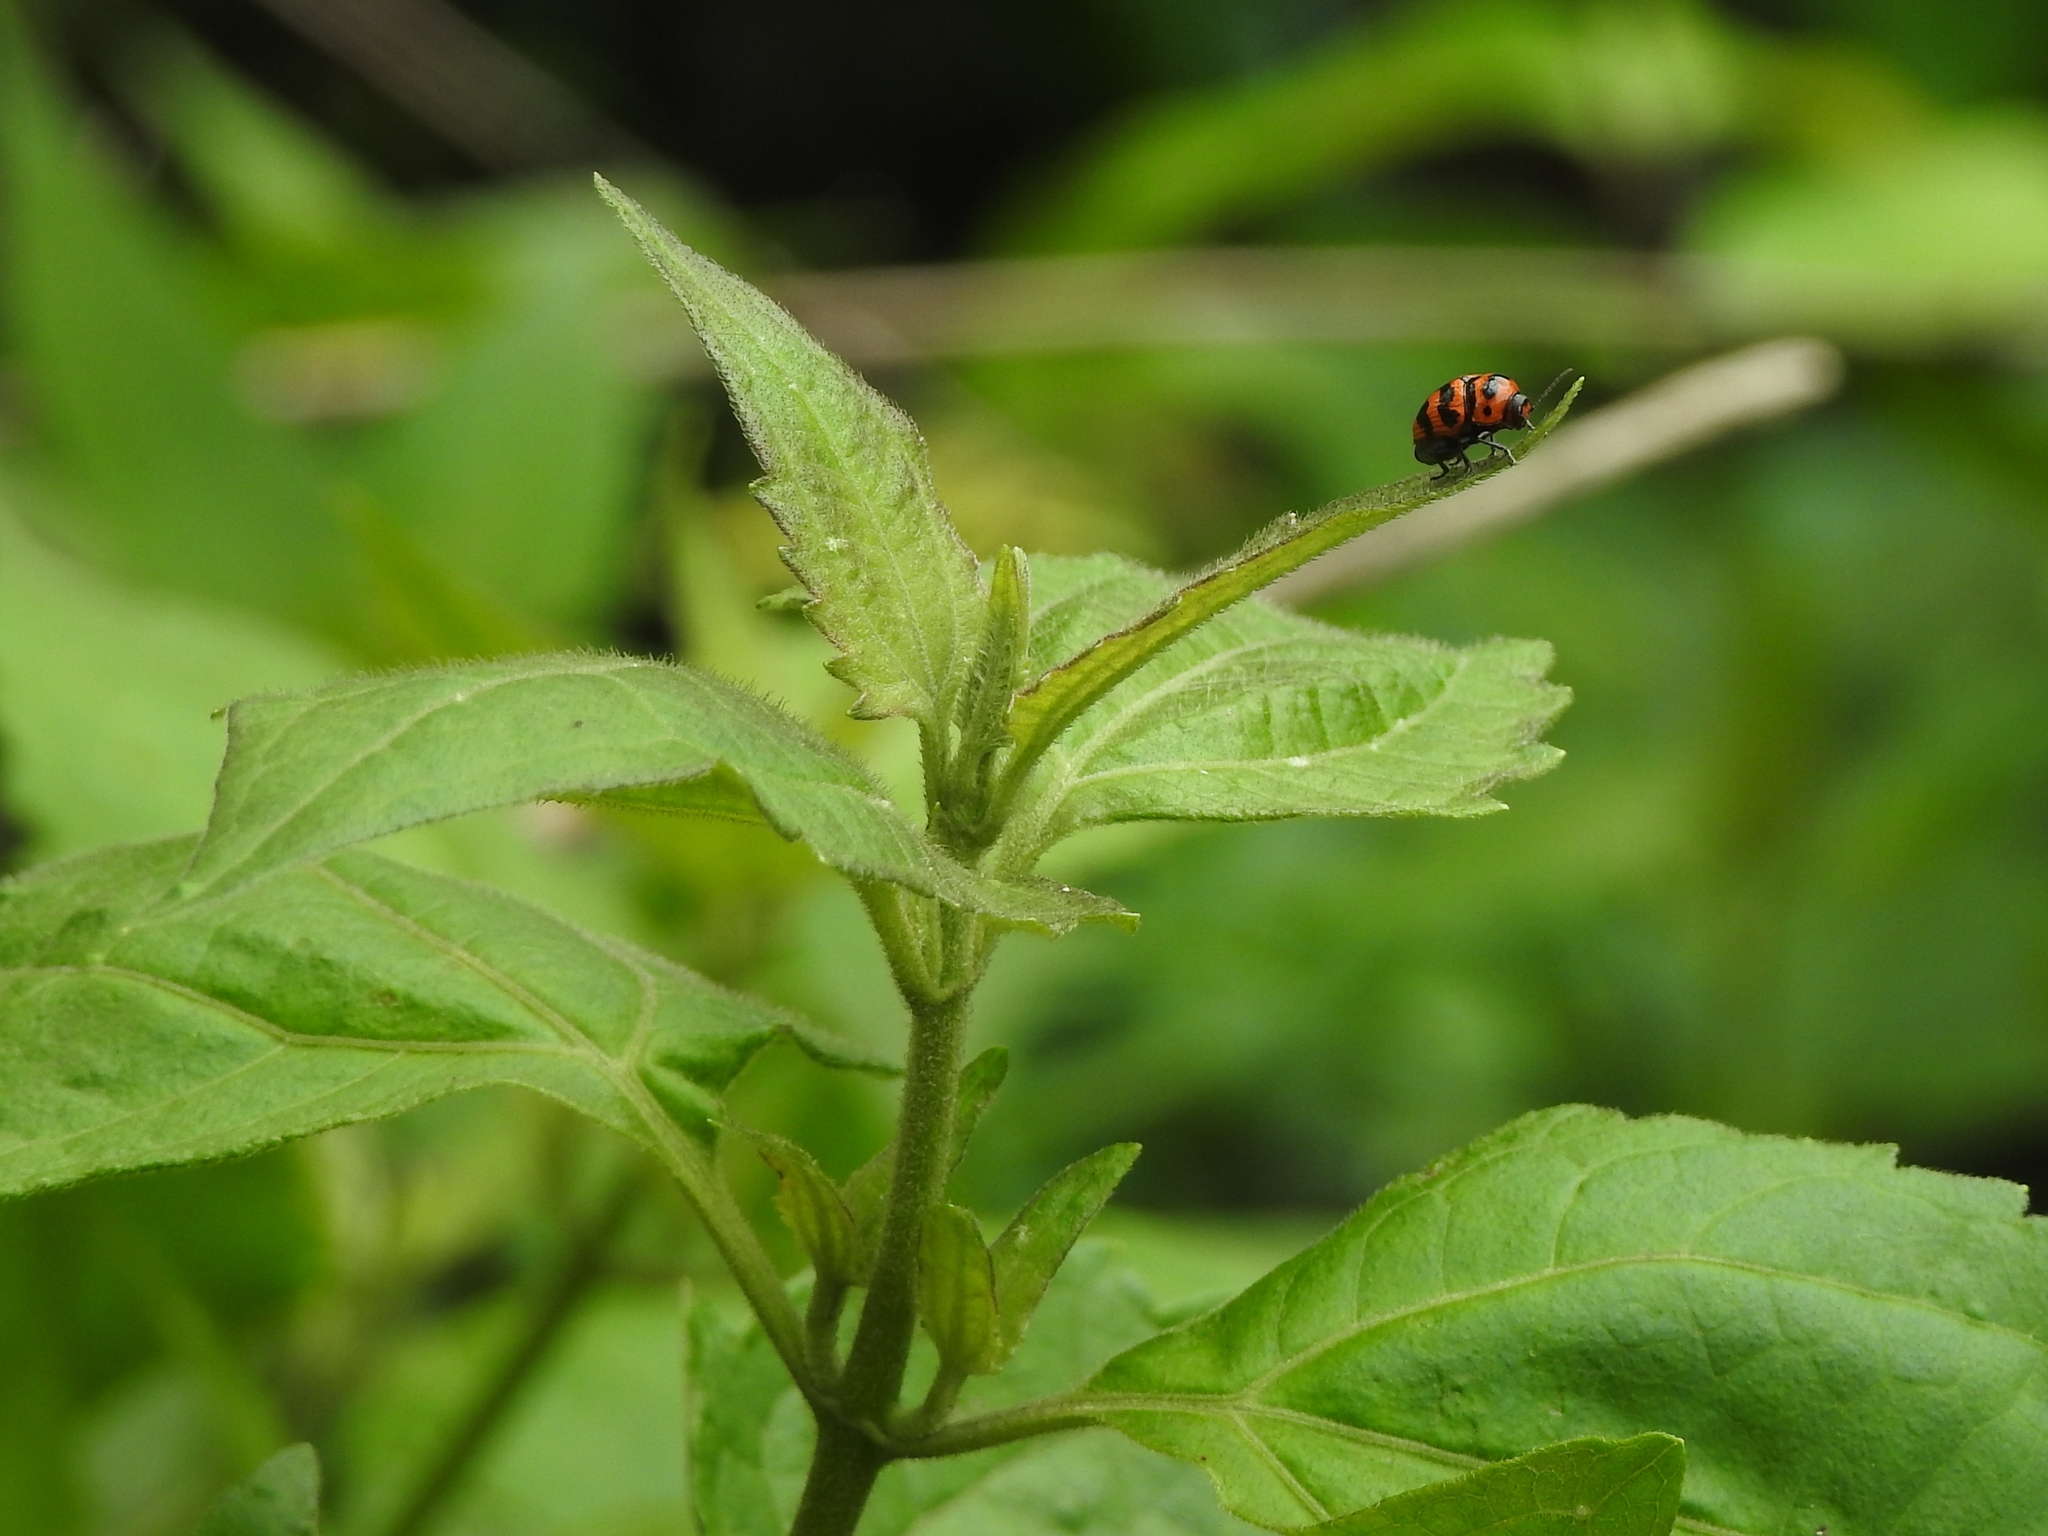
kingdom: Animalia
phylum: Arthropoda
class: Insecta
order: Coleoptera
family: Chrysomelidae
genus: Cryptocephalus
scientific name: Cryptocephalus trifasciatus
